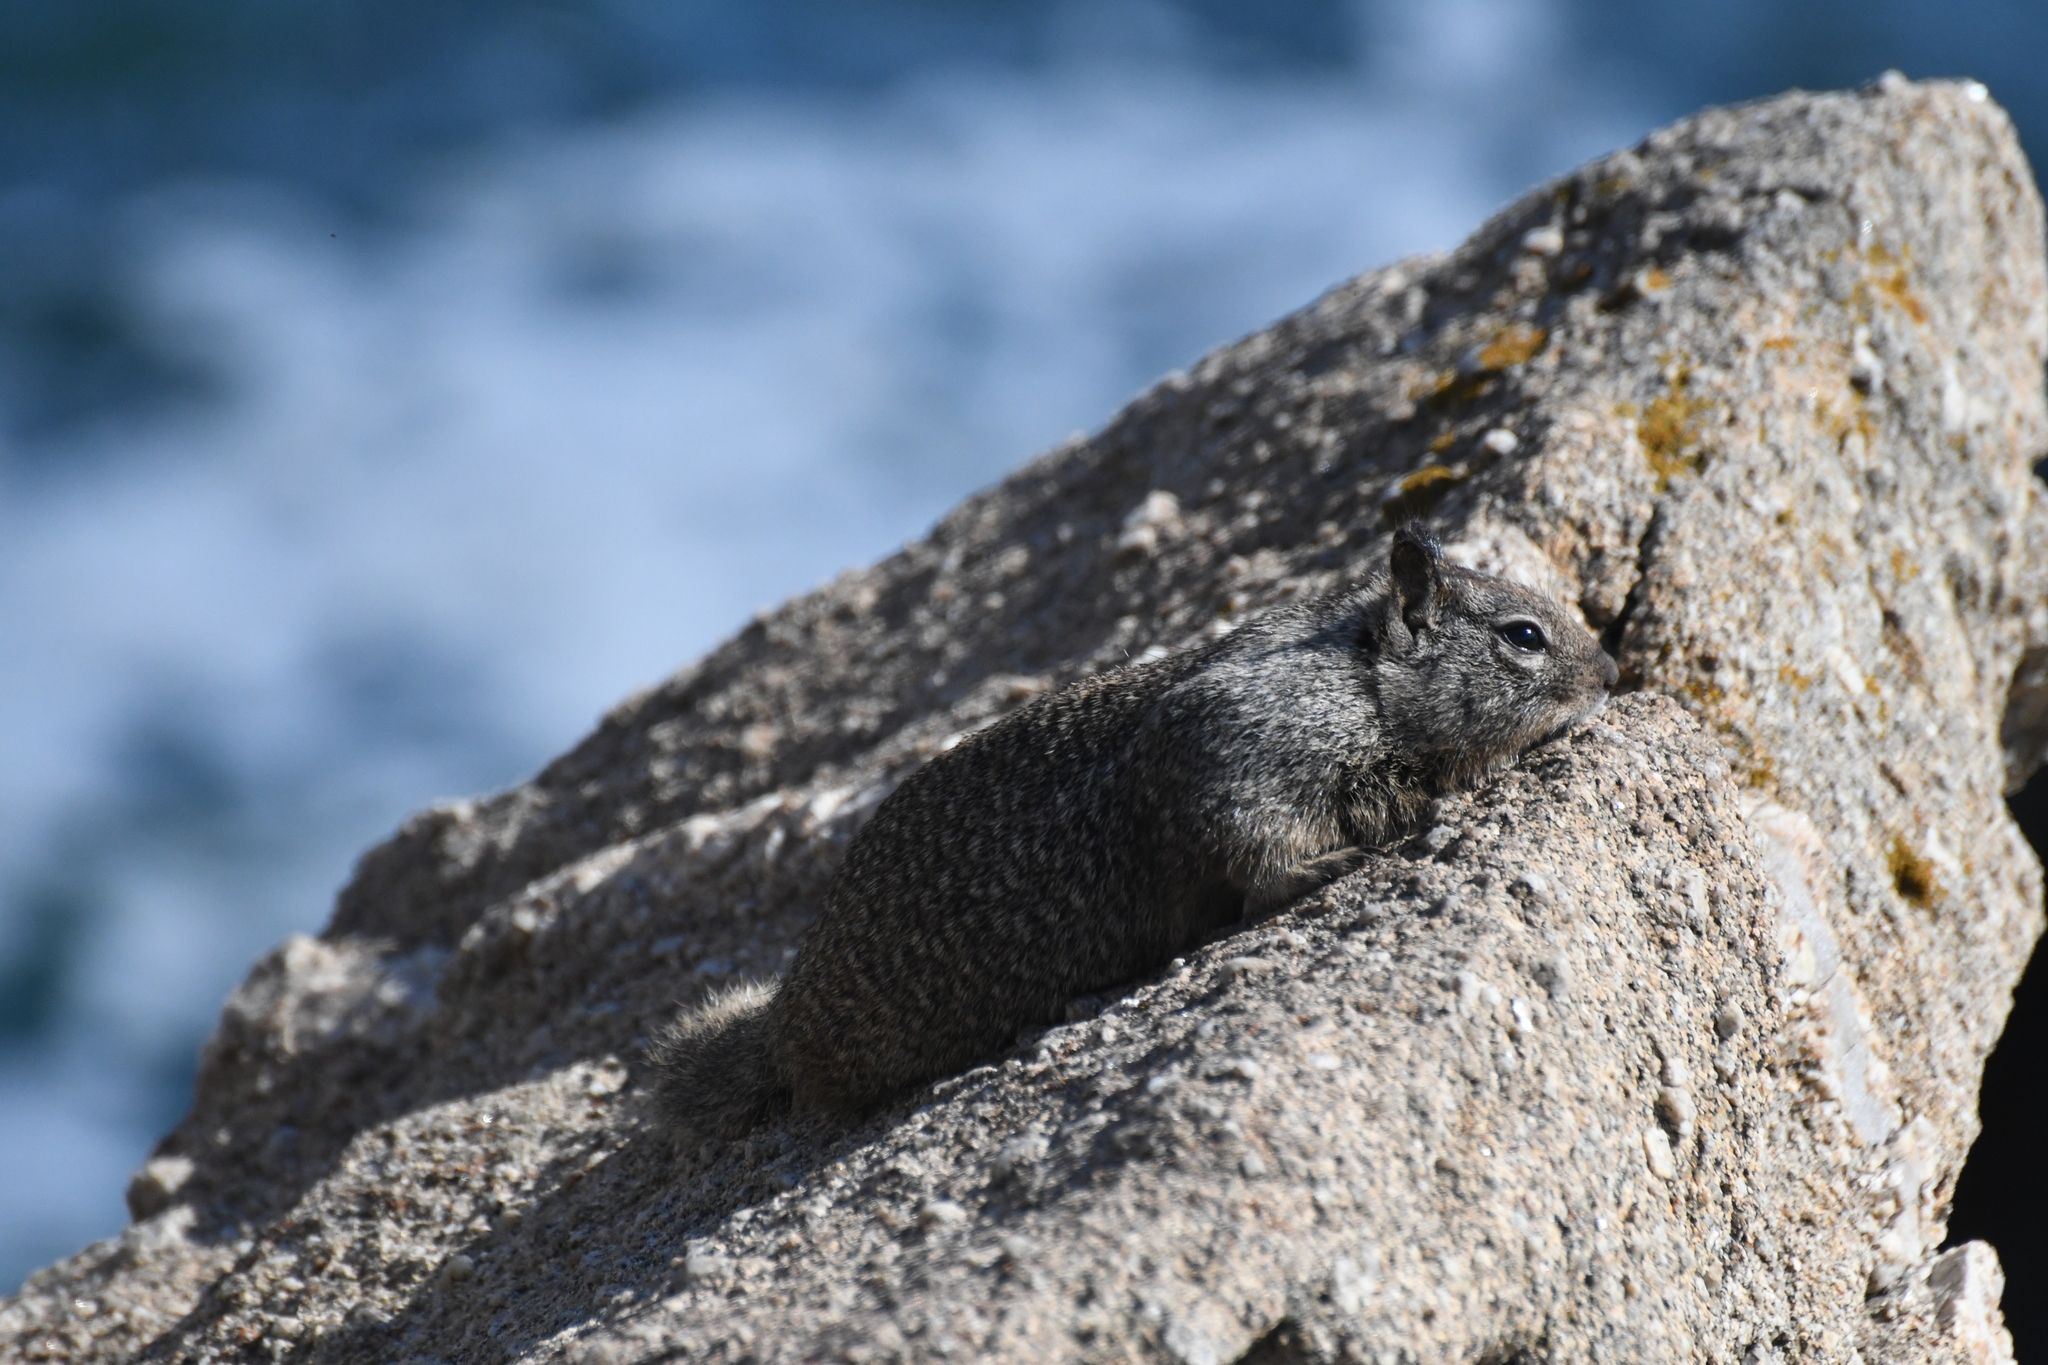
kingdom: Animalia
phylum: Chordata
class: Mammalia
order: Rodentia
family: Sciuridae
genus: Otospermophilus
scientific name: Otospermophilus beecheyi
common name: California ground squirrel
